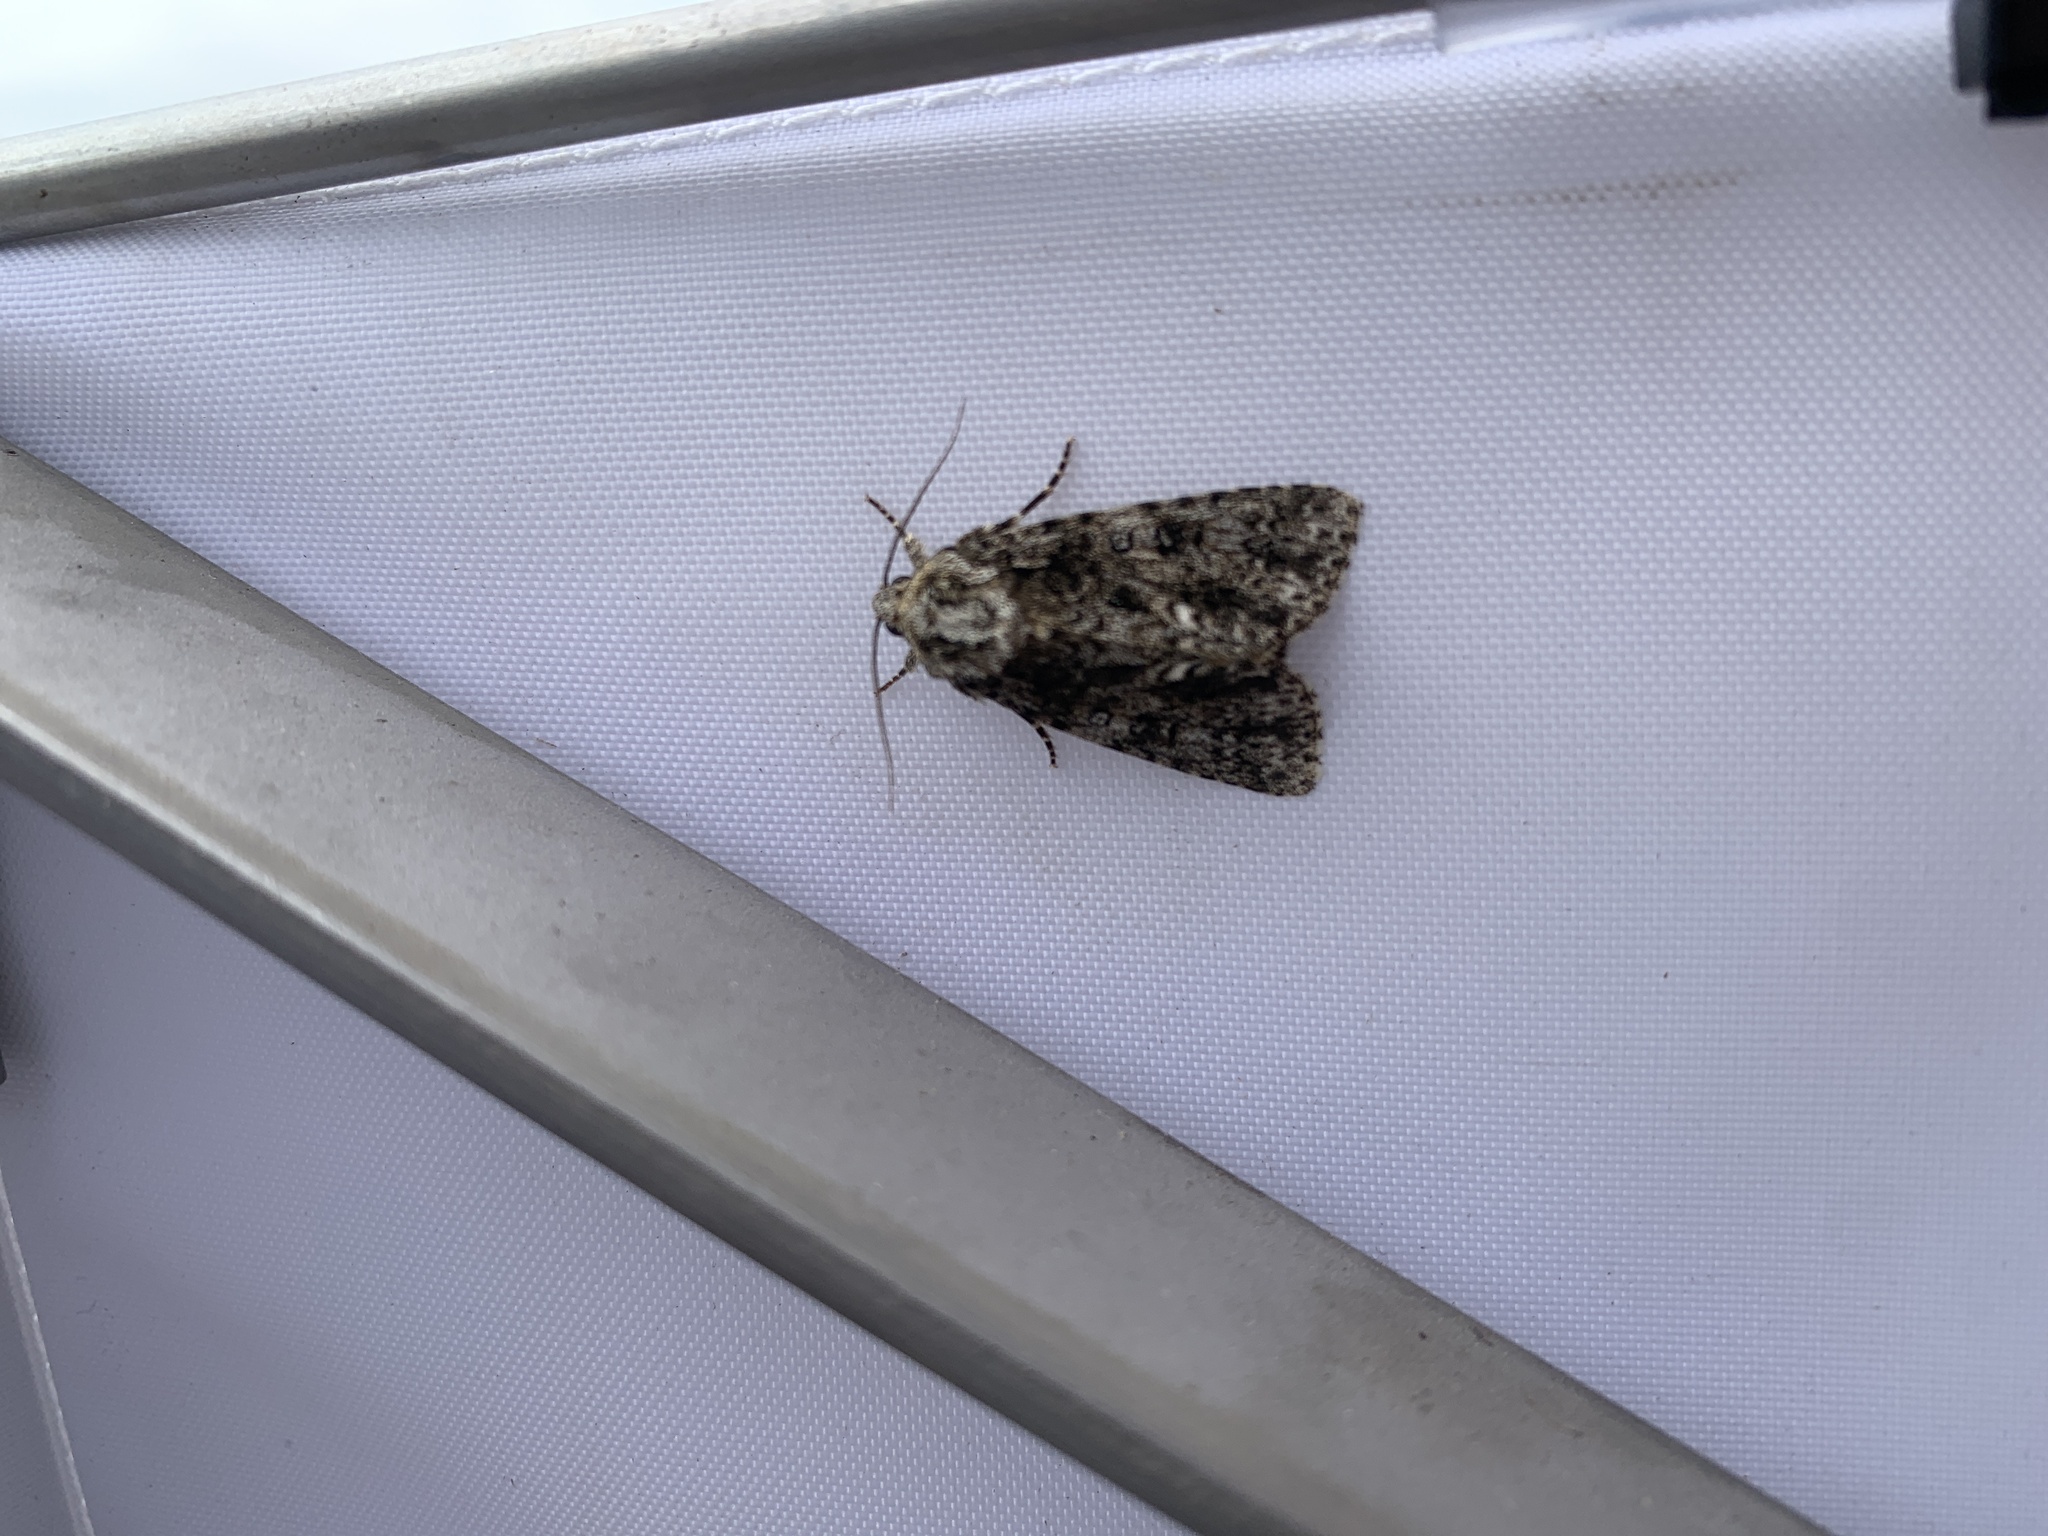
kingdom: Animalia
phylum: Arthropoda
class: Insecta
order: Lepidoptera
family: Noctuidae
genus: Acronicta
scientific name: Acronicta rumicis
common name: Knot grass
